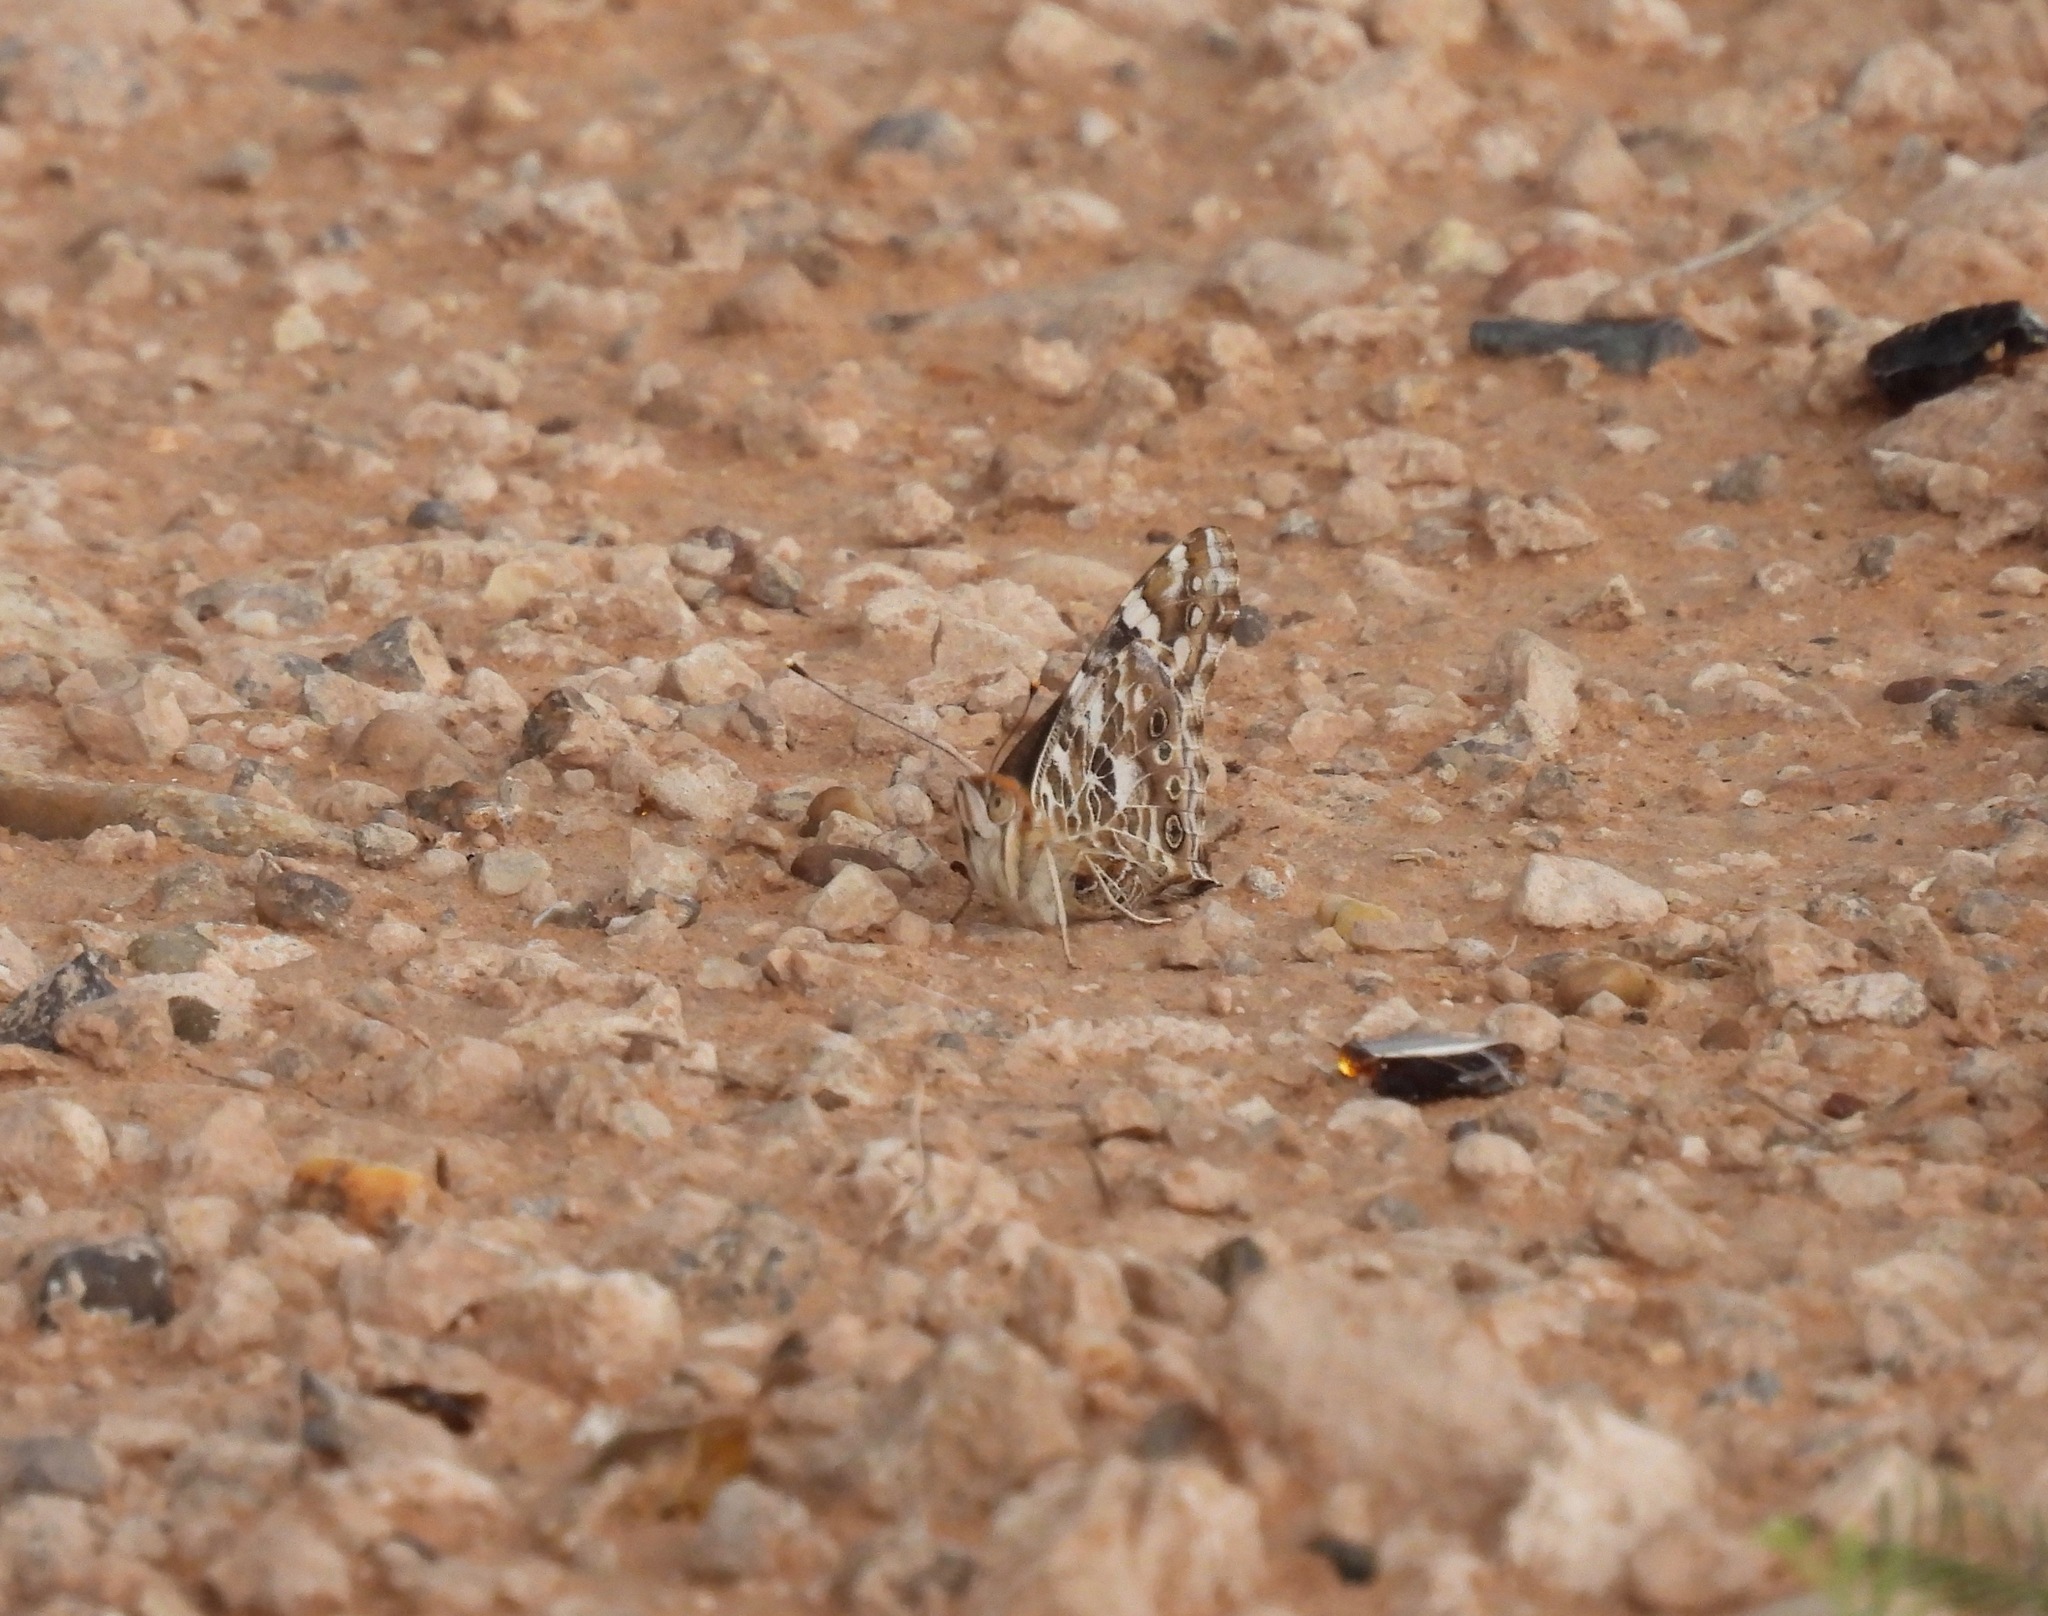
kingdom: Animalia
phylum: Arthropoda
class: Insecta
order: Lepidoptera
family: Nymphalidae
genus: Vanessa
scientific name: Vanessa cardui
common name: Painted lady
